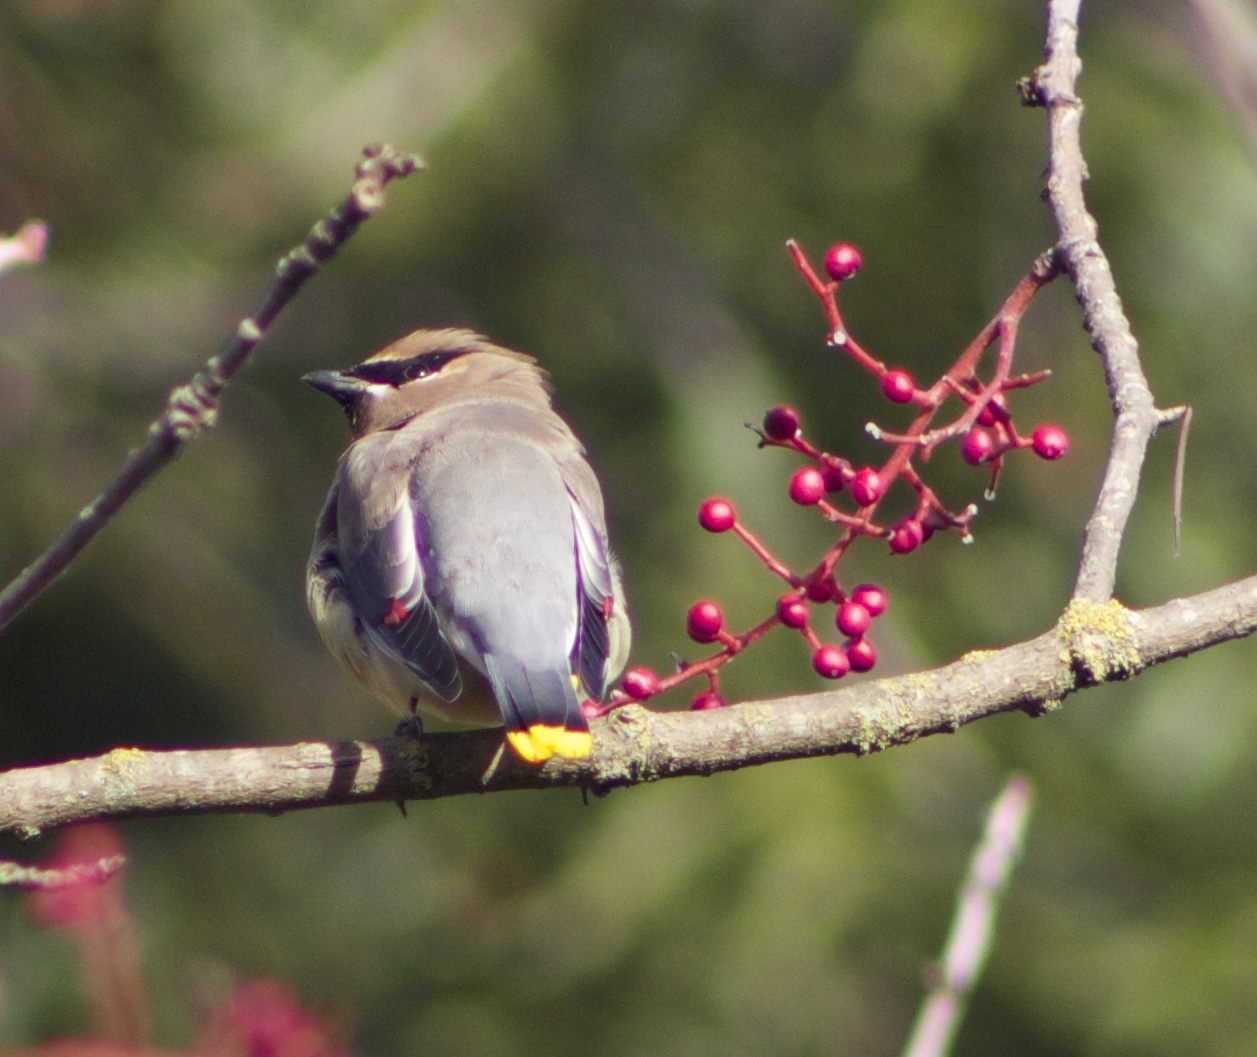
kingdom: Animalia
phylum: Chordata
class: Aves
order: Passeriformes
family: Bombycillidae
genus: Bombycilla
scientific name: Bombycilla cedrorum
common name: Cedar waxwing
